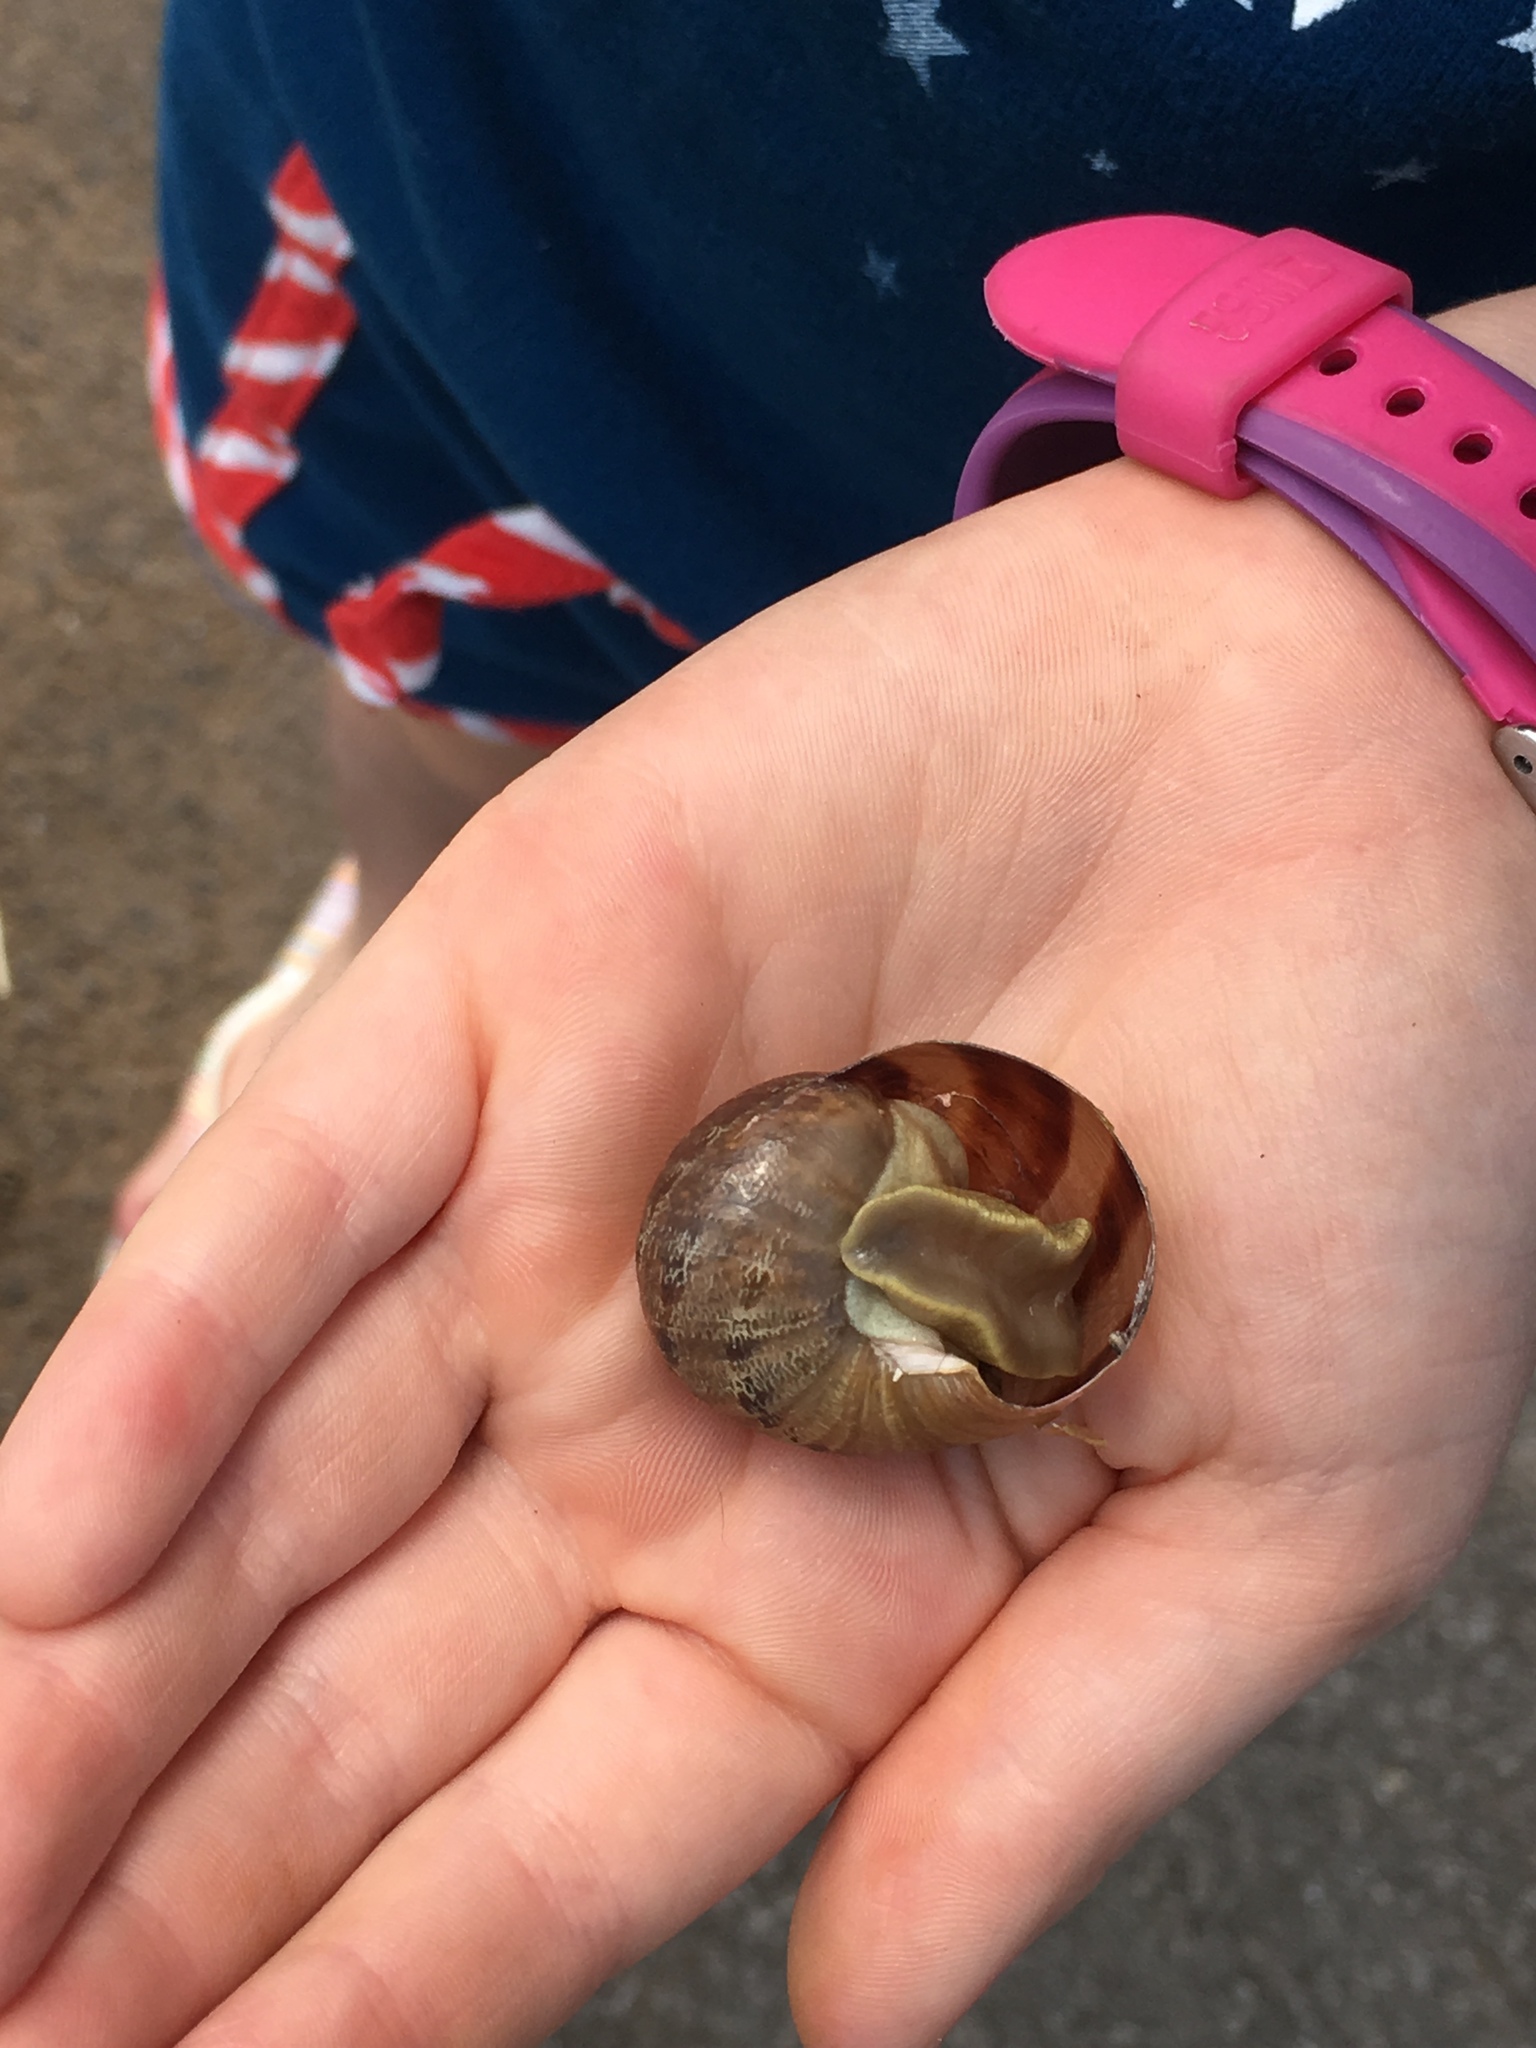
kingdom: Animalia
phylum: Mollusca
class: Gastropoda
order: Stylommatophora
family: Helicidae
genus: Cornu
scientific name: Cornu aspersum
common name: Brown garden snail
